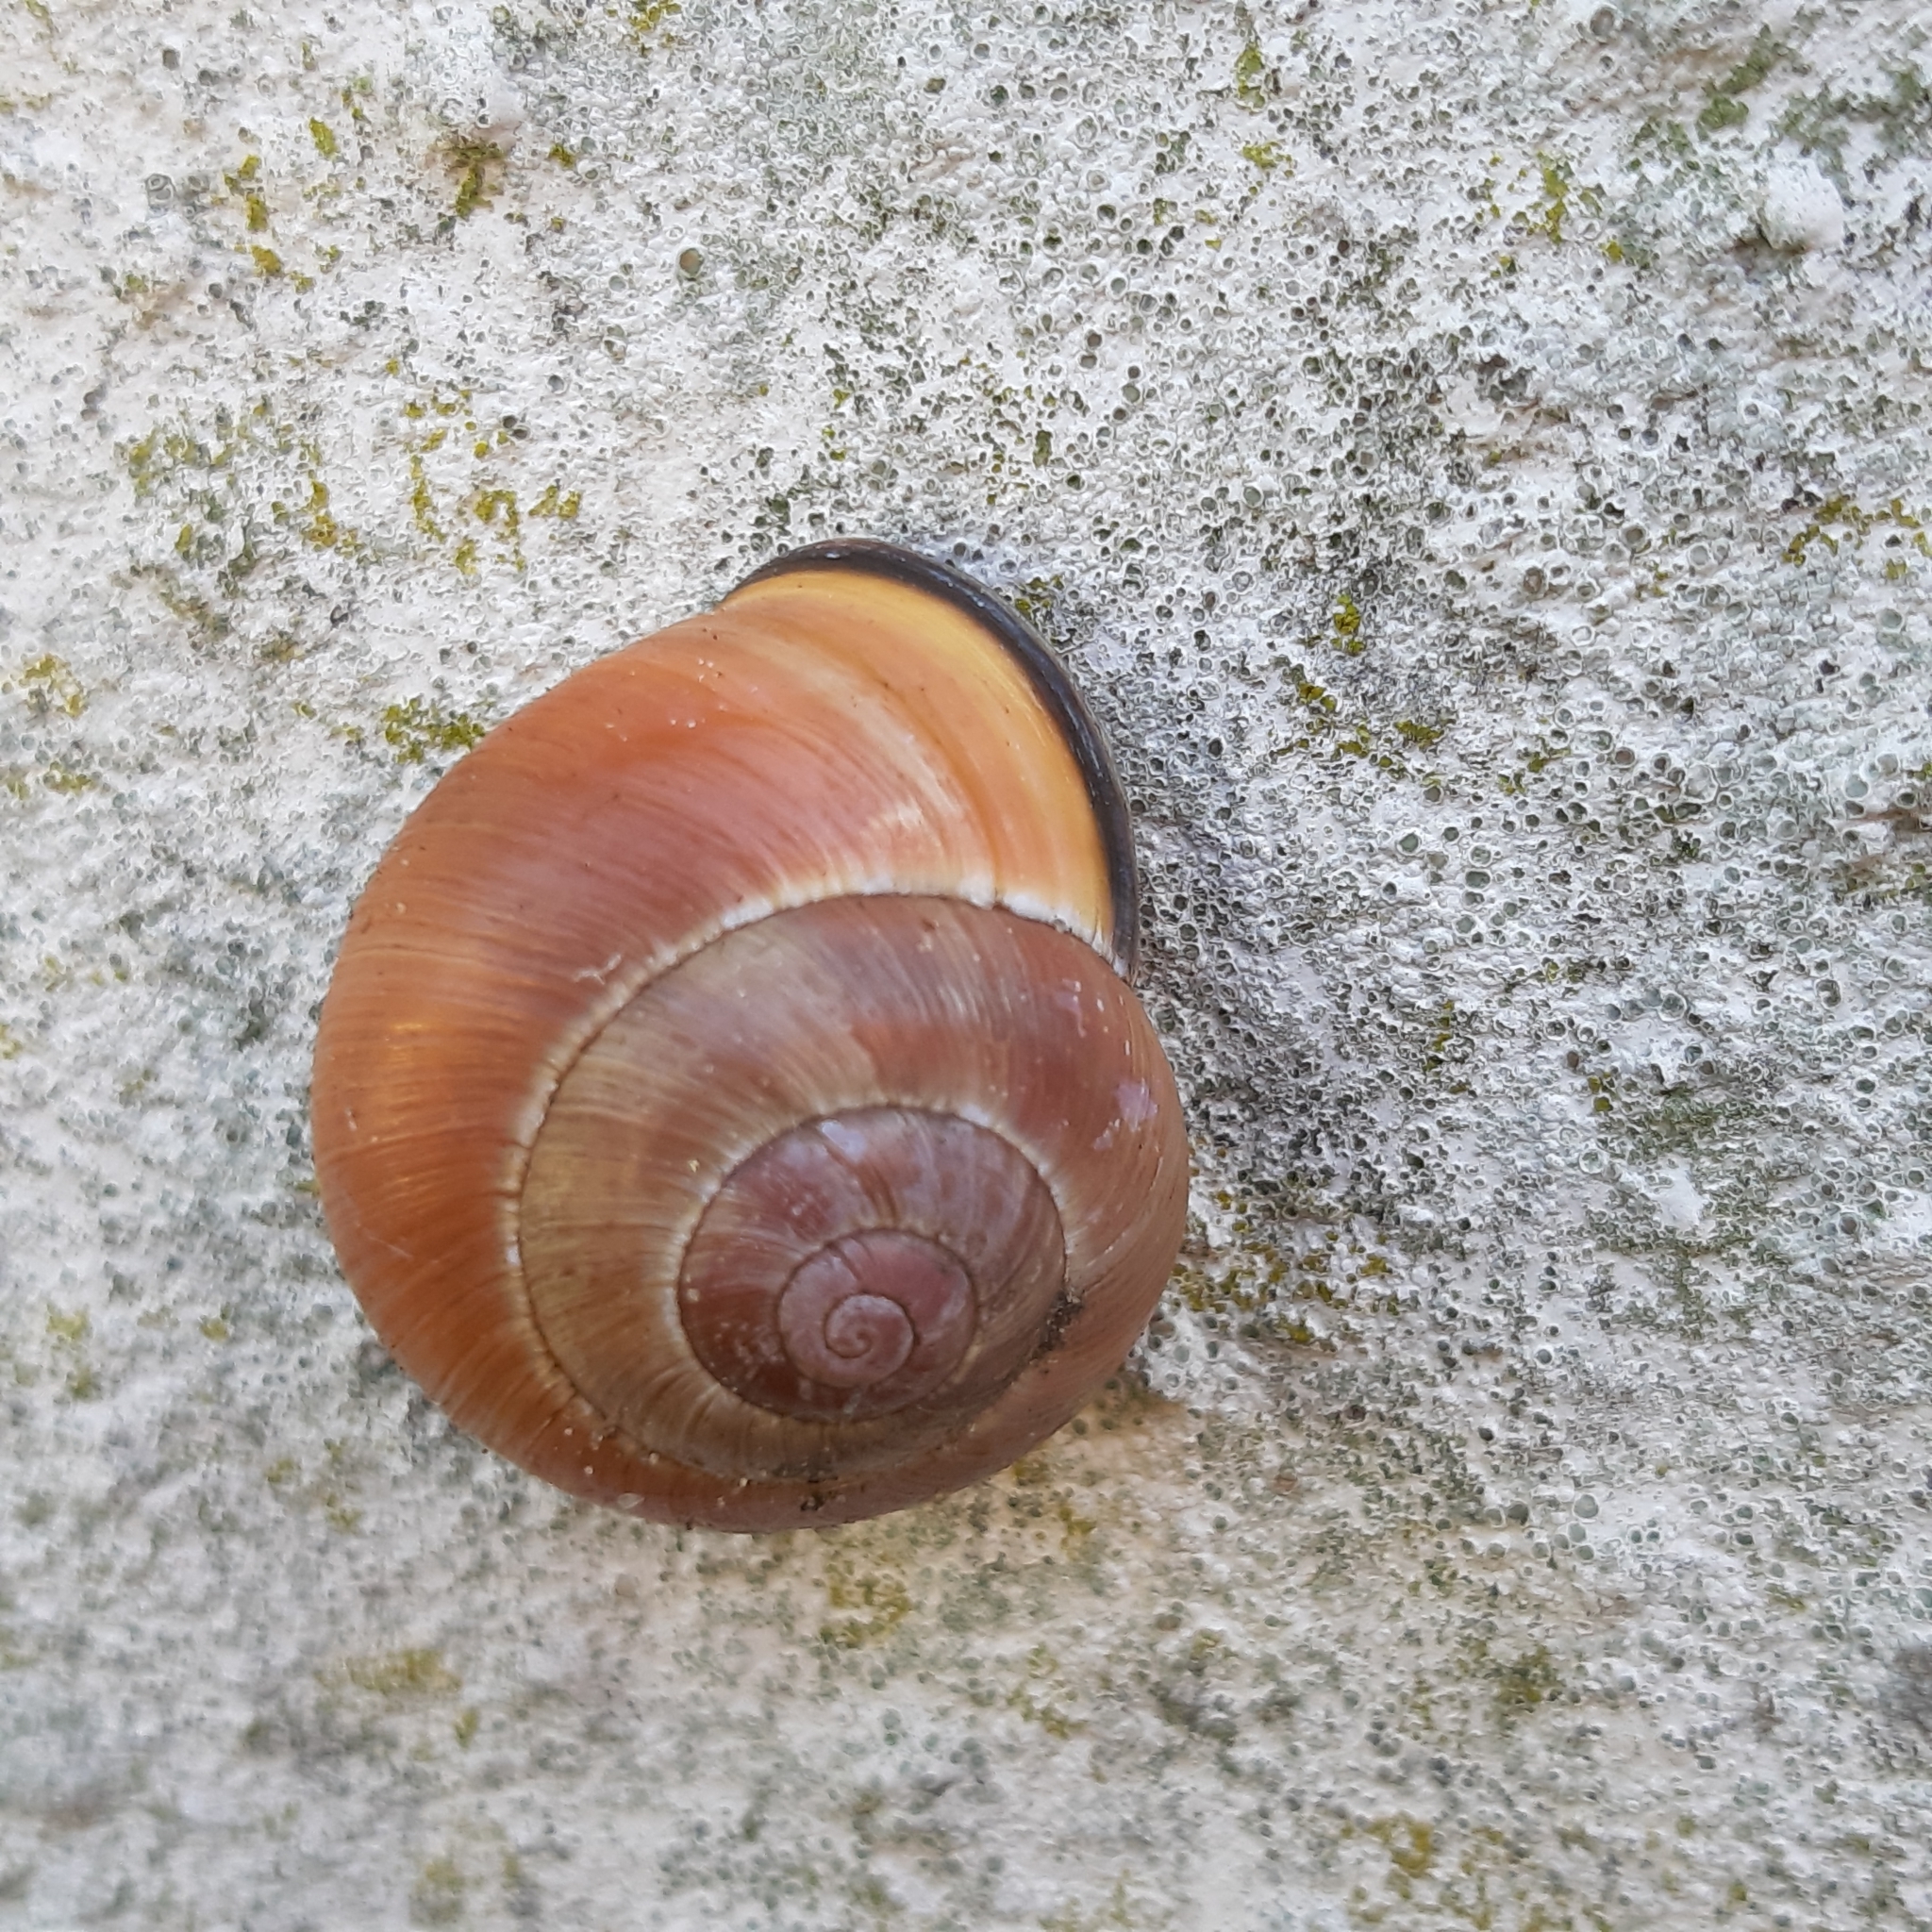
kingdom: Animalia
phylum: Mollusca
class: Gastropoda
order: Stylommatophora
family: Helicidae
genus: Cepaea
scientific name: Cepaea nemoralis
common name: Grovesnail
